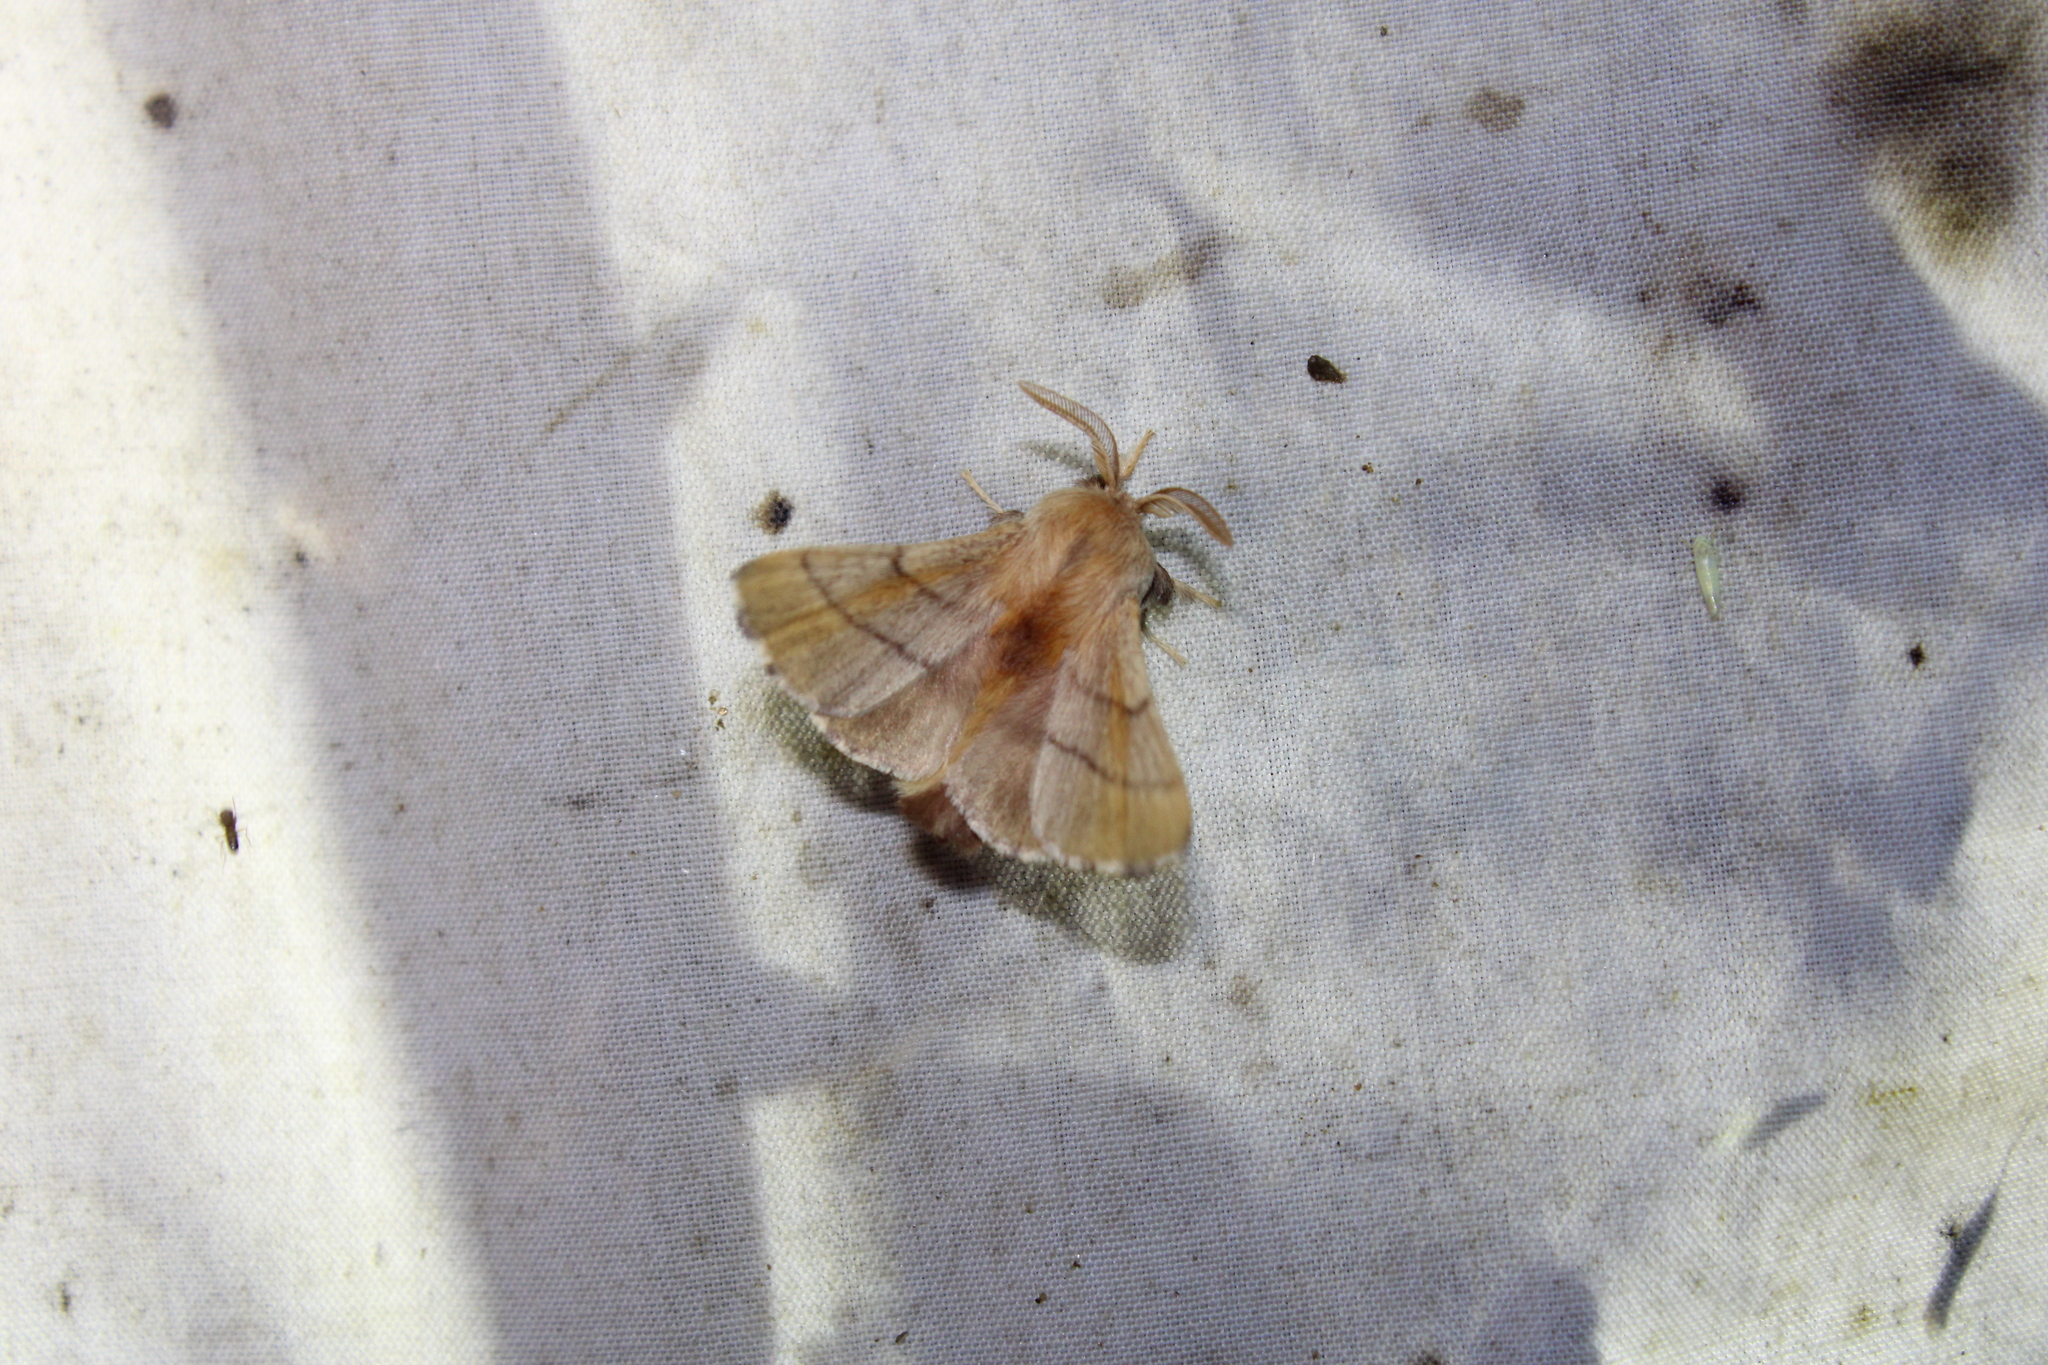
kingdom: Animalia
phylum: Arthropoda
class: Insecta
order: Lepidoptera
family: Lasiocampidae
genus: Malacosoma
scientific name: Malacosoma disstria
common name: Forest tent caterpillar
